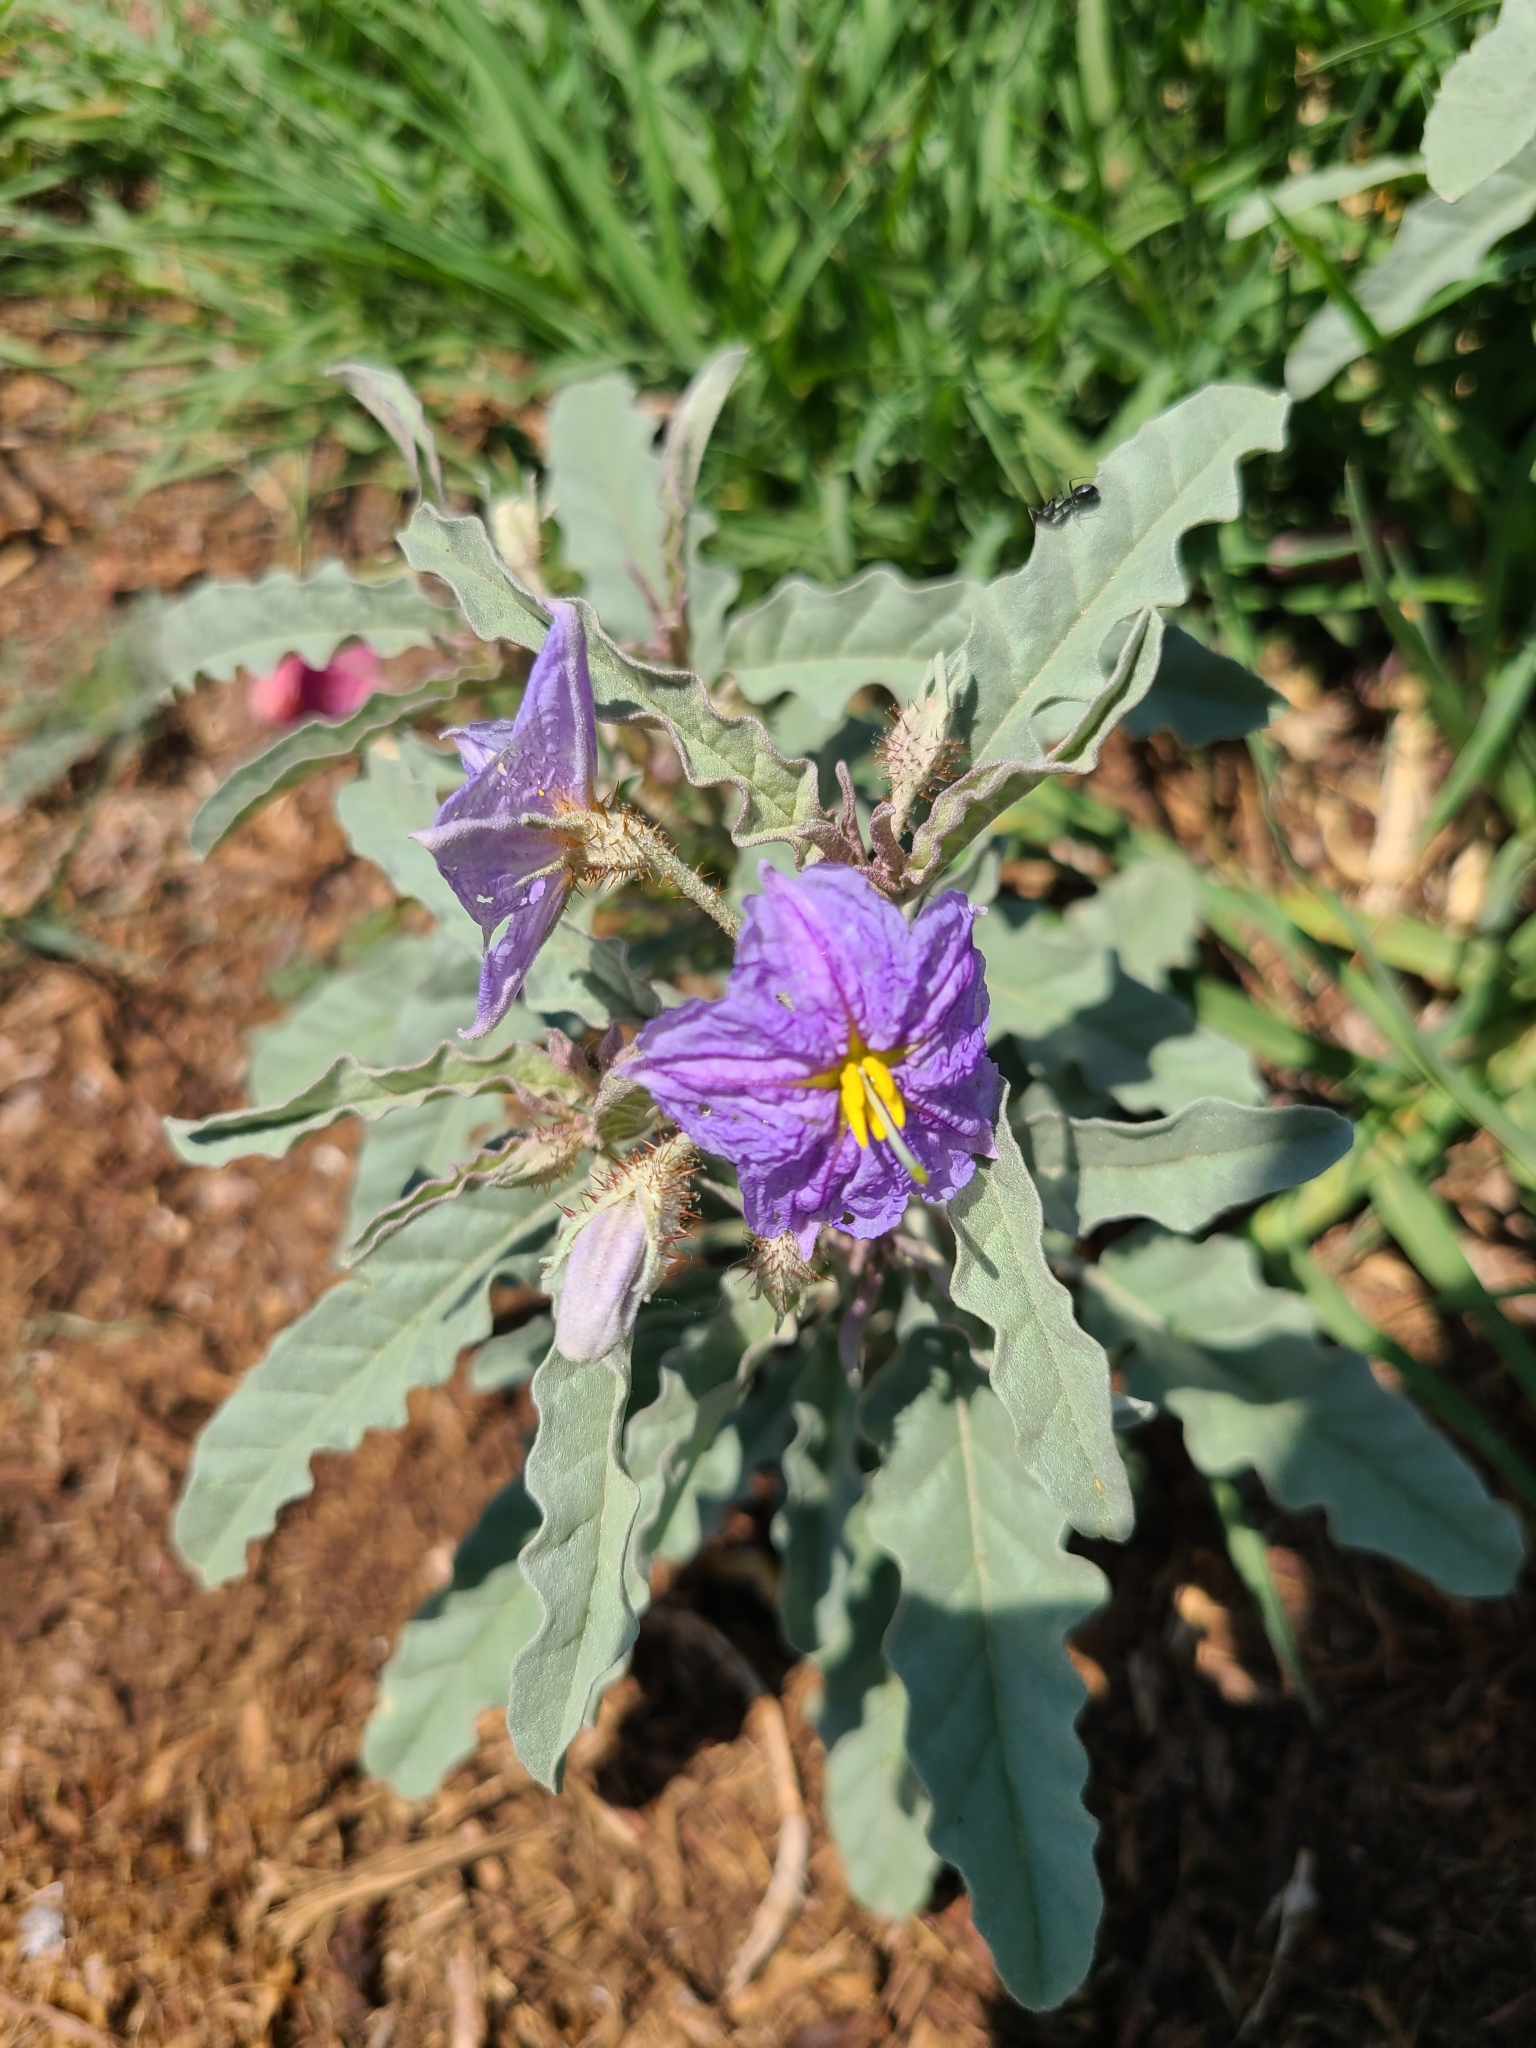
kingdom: Plantae
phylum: Tracheophyta
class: Magnoliopsida
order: Solanales
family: Solanaceae
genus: Solanum
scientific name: Solanum elaeagnifolium
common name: Silverleaf nightshade
